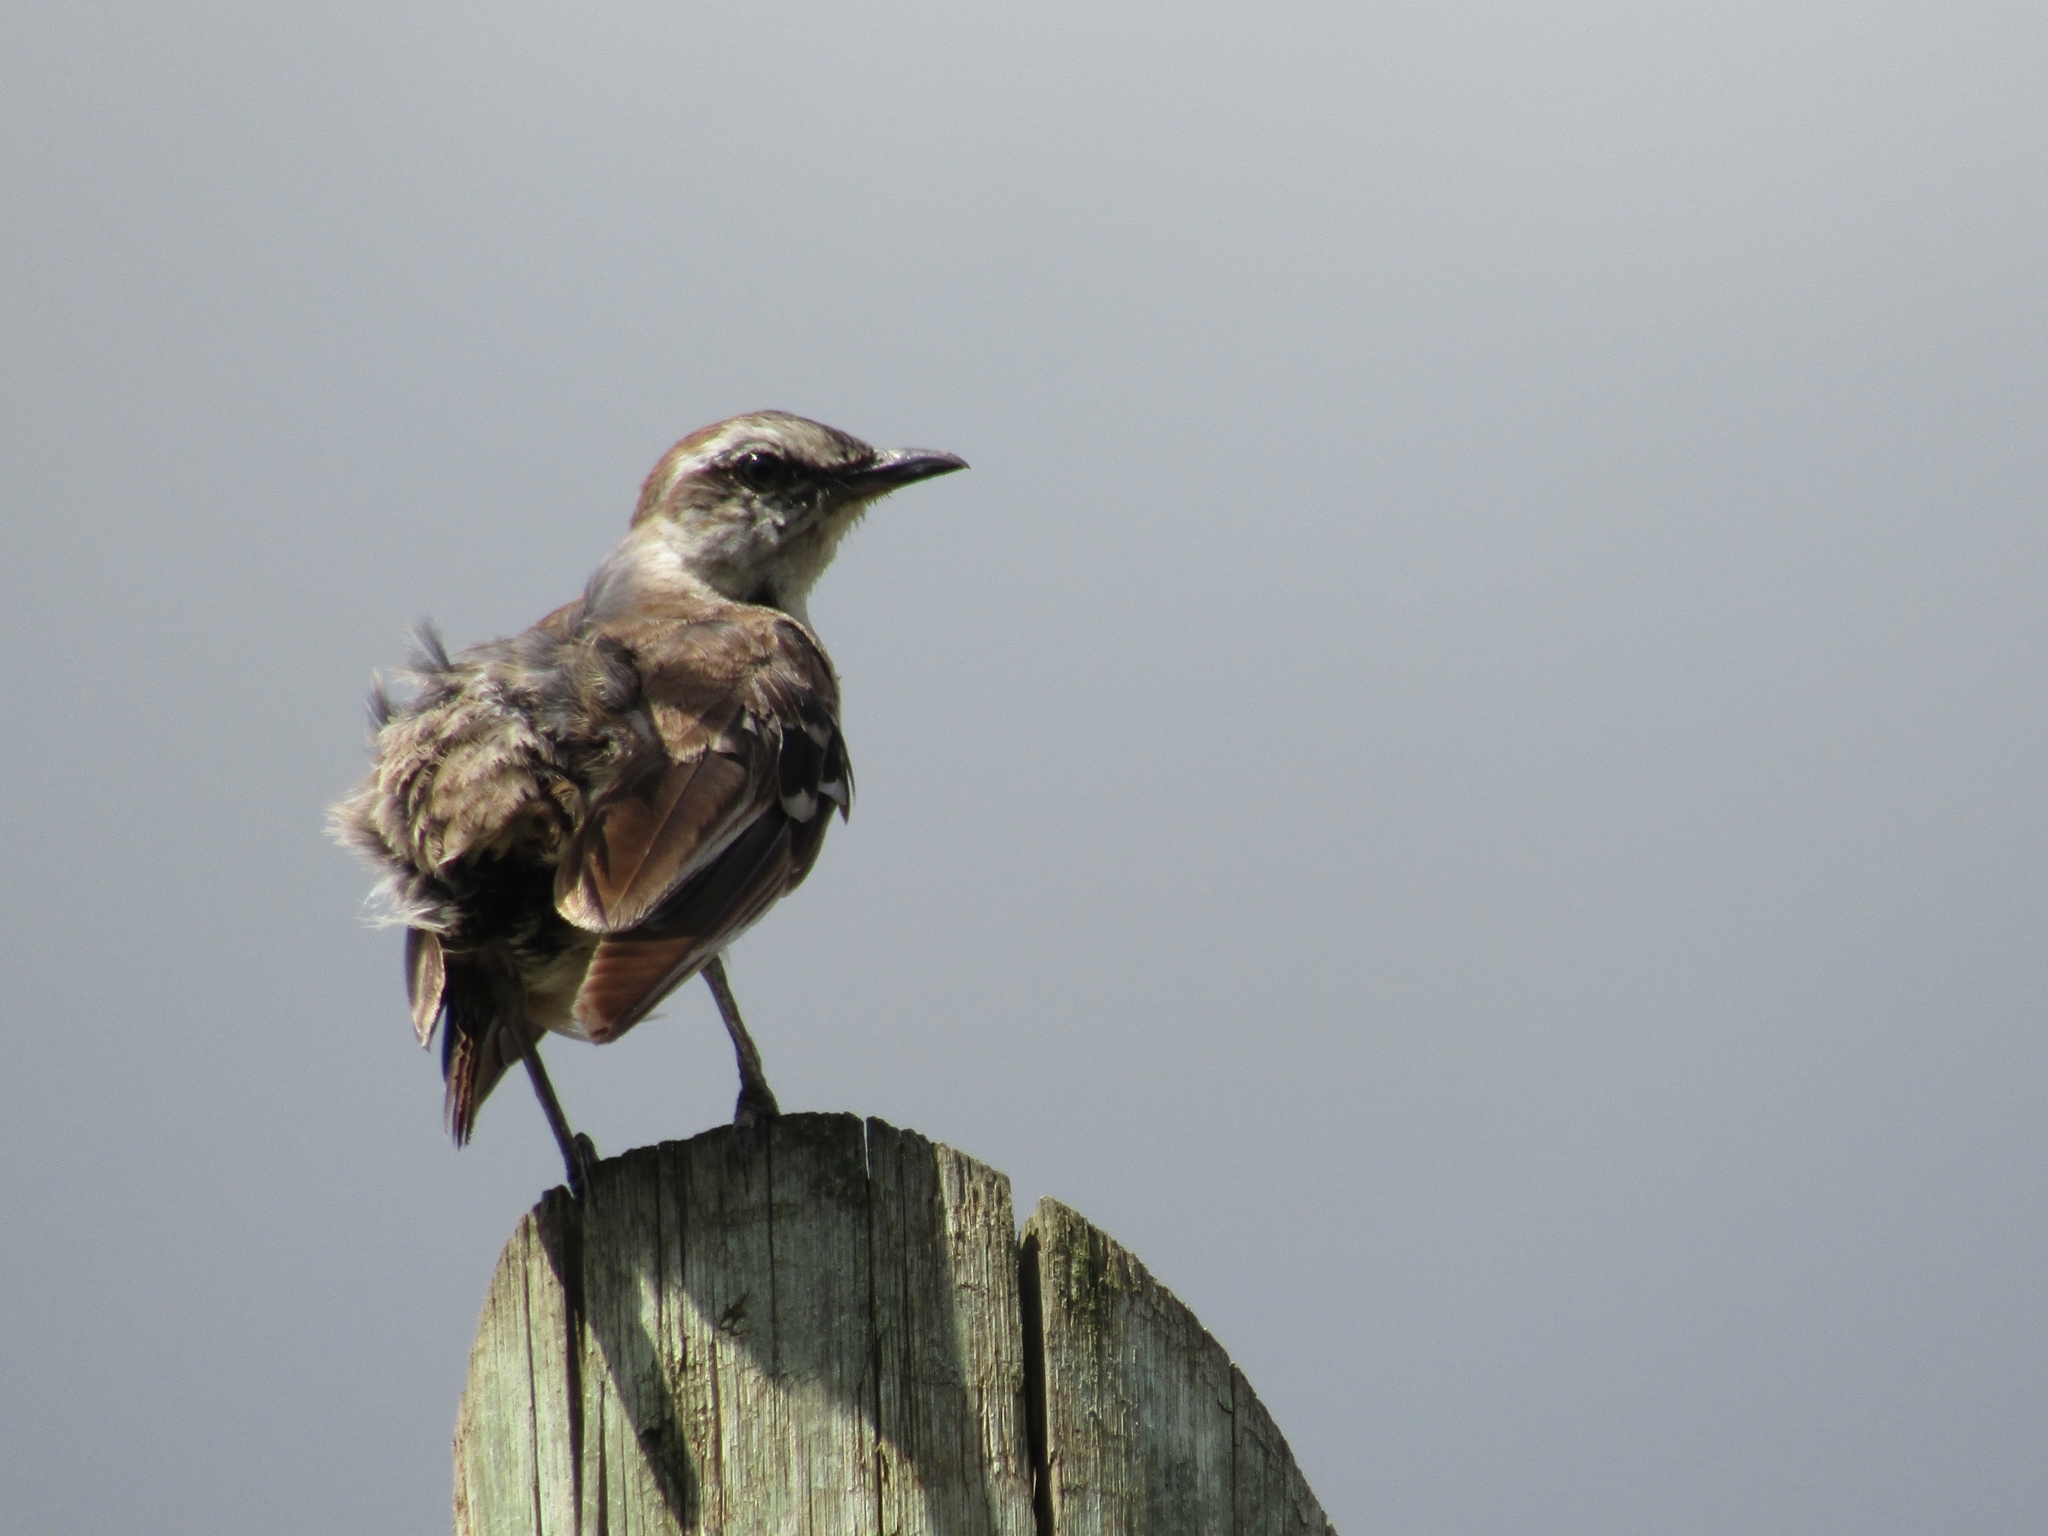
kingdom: Animalia
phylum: Chordata
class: Aves
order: Passeriformes
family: Mimidae
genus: Mimus
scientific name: Mimus saturninus
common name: Chalk-browed mockingbird
